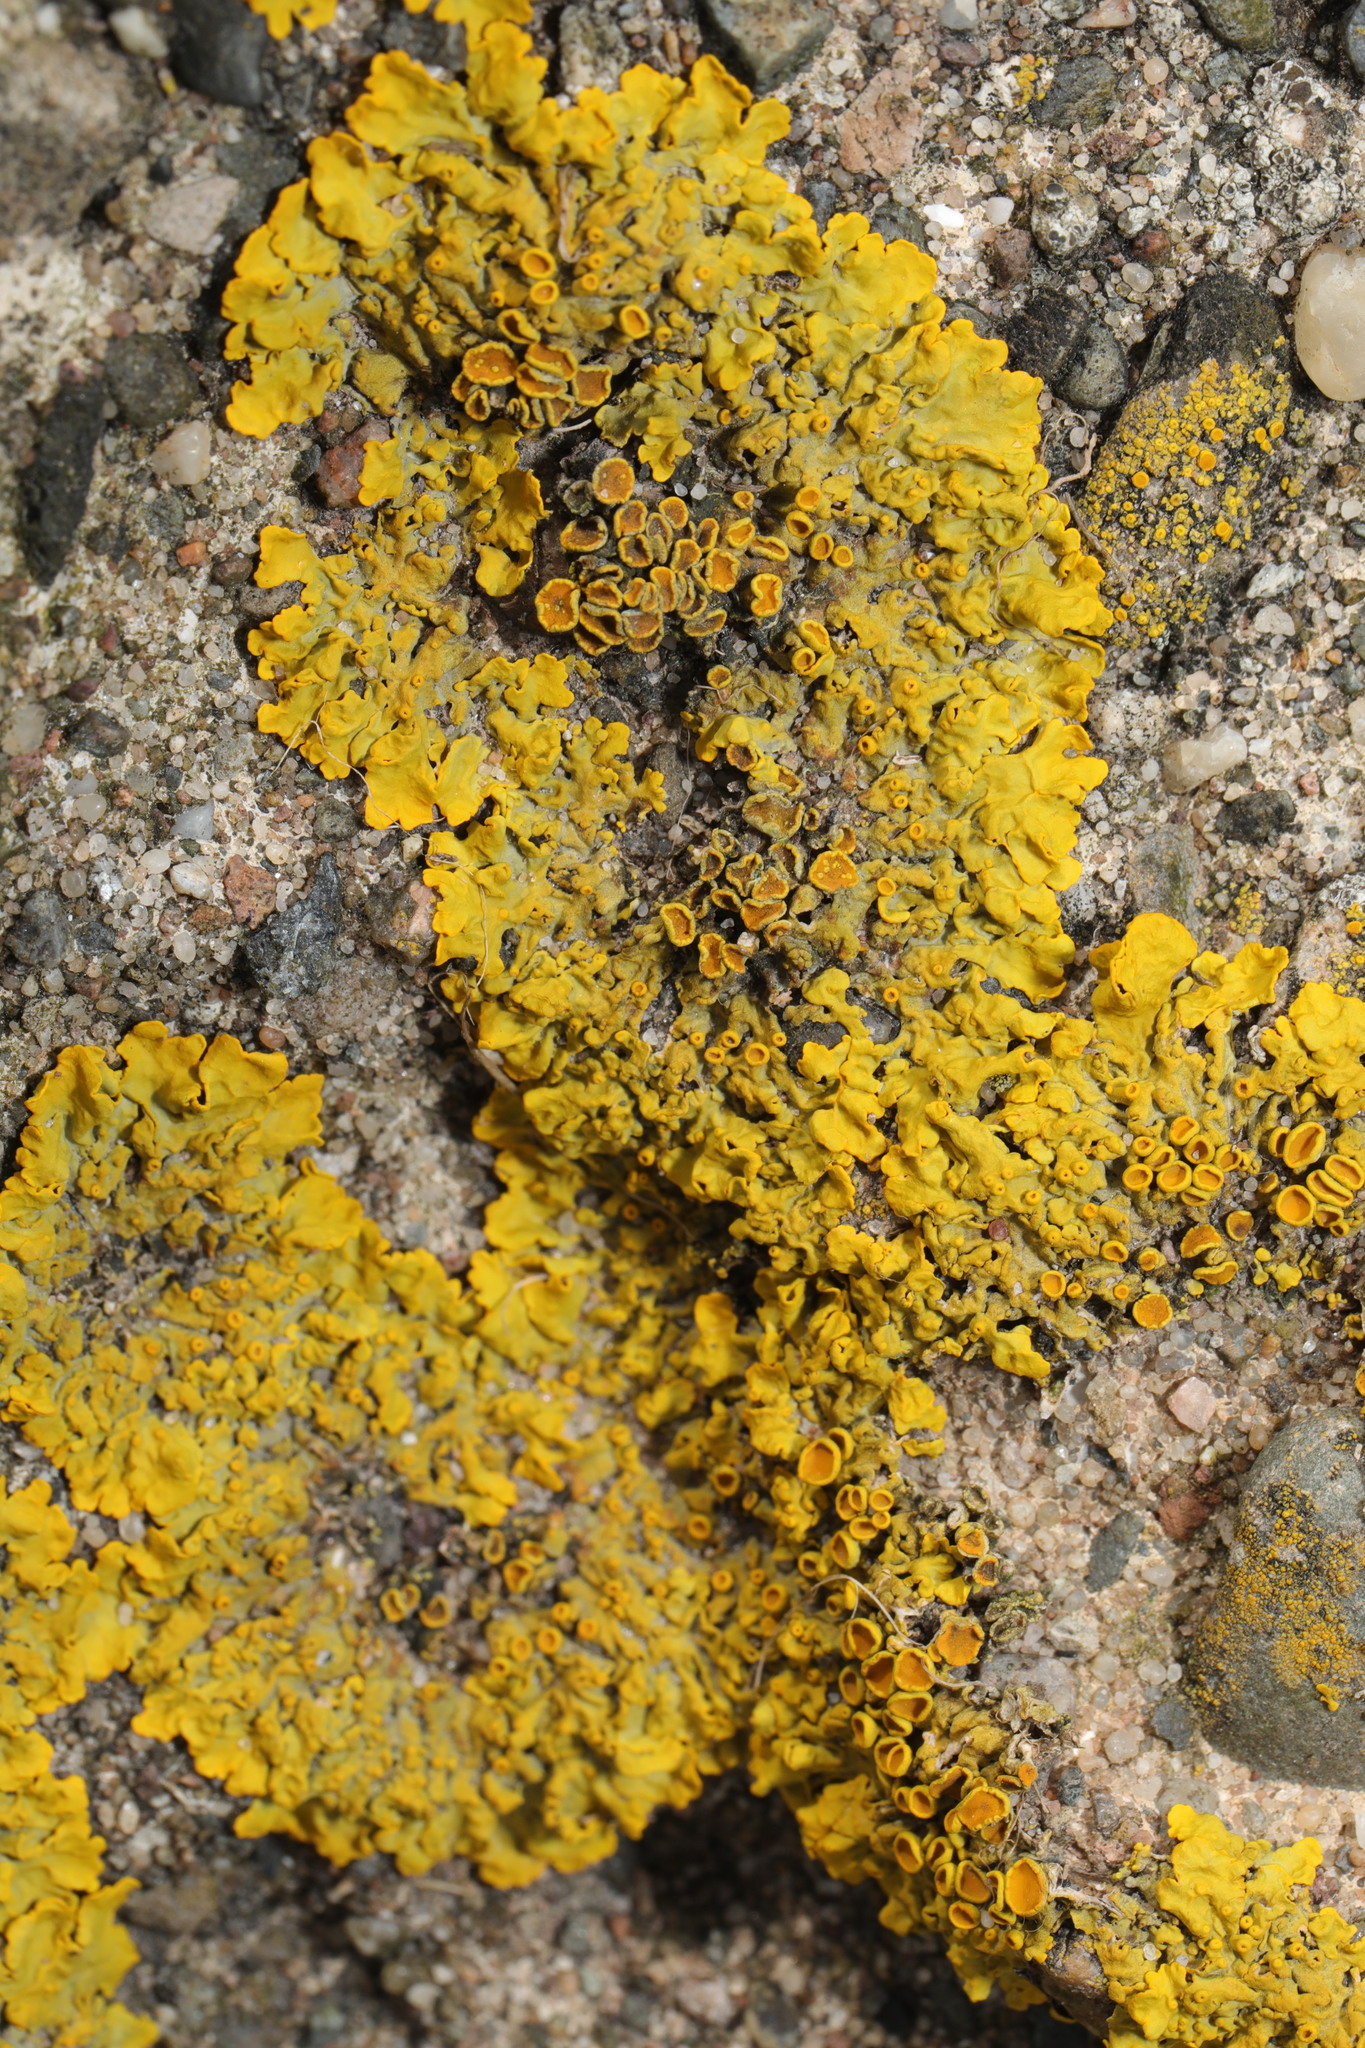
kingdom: Fungi
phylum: Ascomycota
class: Lecanoromycetes
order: Teloschistales
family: Teloschistaceae
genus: Xanthoria
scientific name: Xanthoria parietina
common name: Common orange lichen
